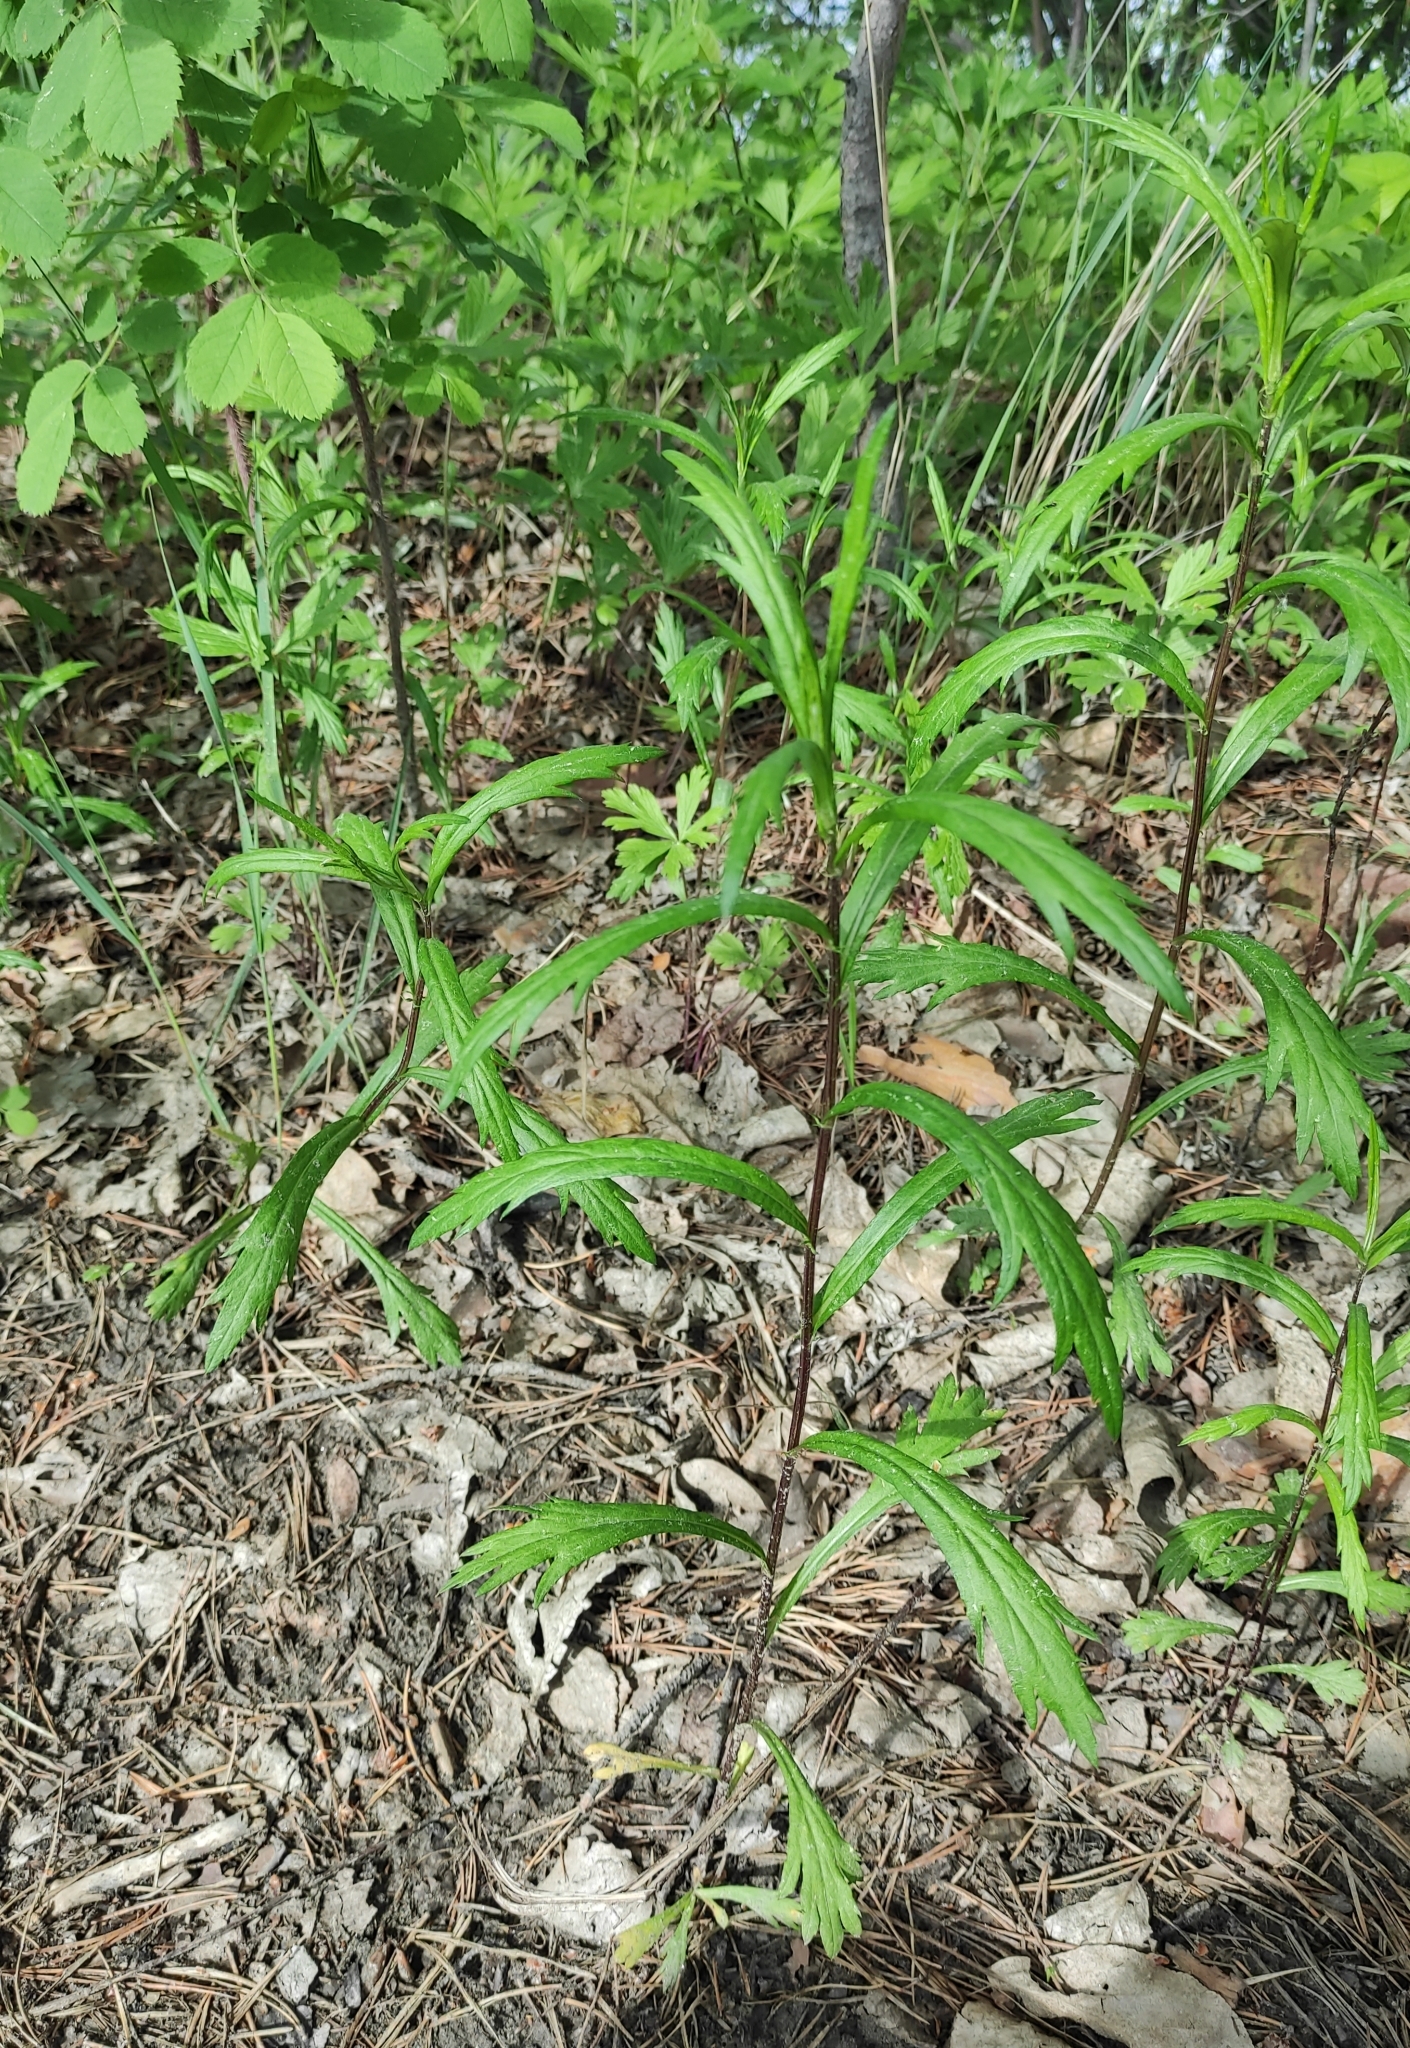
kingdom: Plantae
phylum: Tracheophyta
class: Magnoliopsida
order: Asterales
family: Asteraceae
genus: Artemisia
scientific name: Artemisia integrifolia
